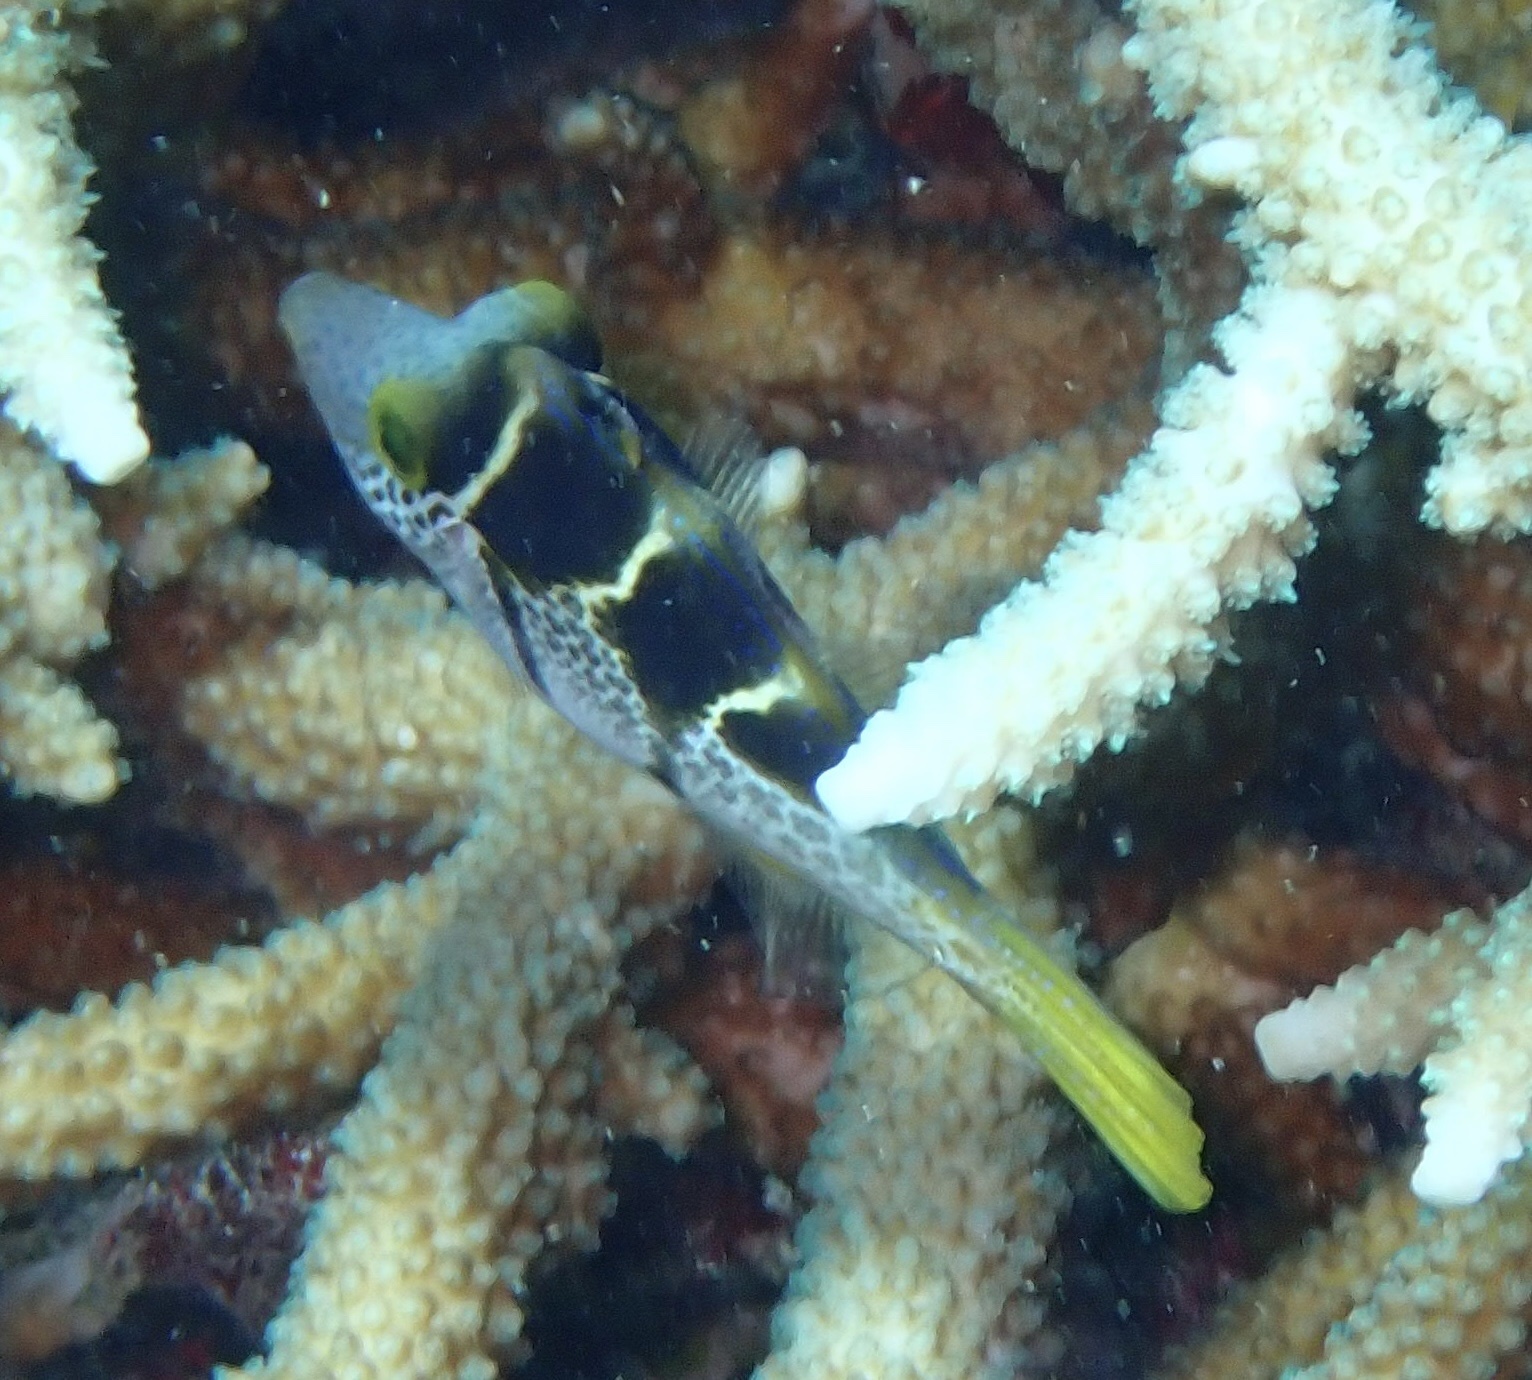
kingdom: Animalia
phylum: Chordata
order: Tetraodontiformes
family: Monacanthidae
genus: Paraluteres
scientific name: Paraluteres prionurus
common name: Black-saddled leatherjacket
